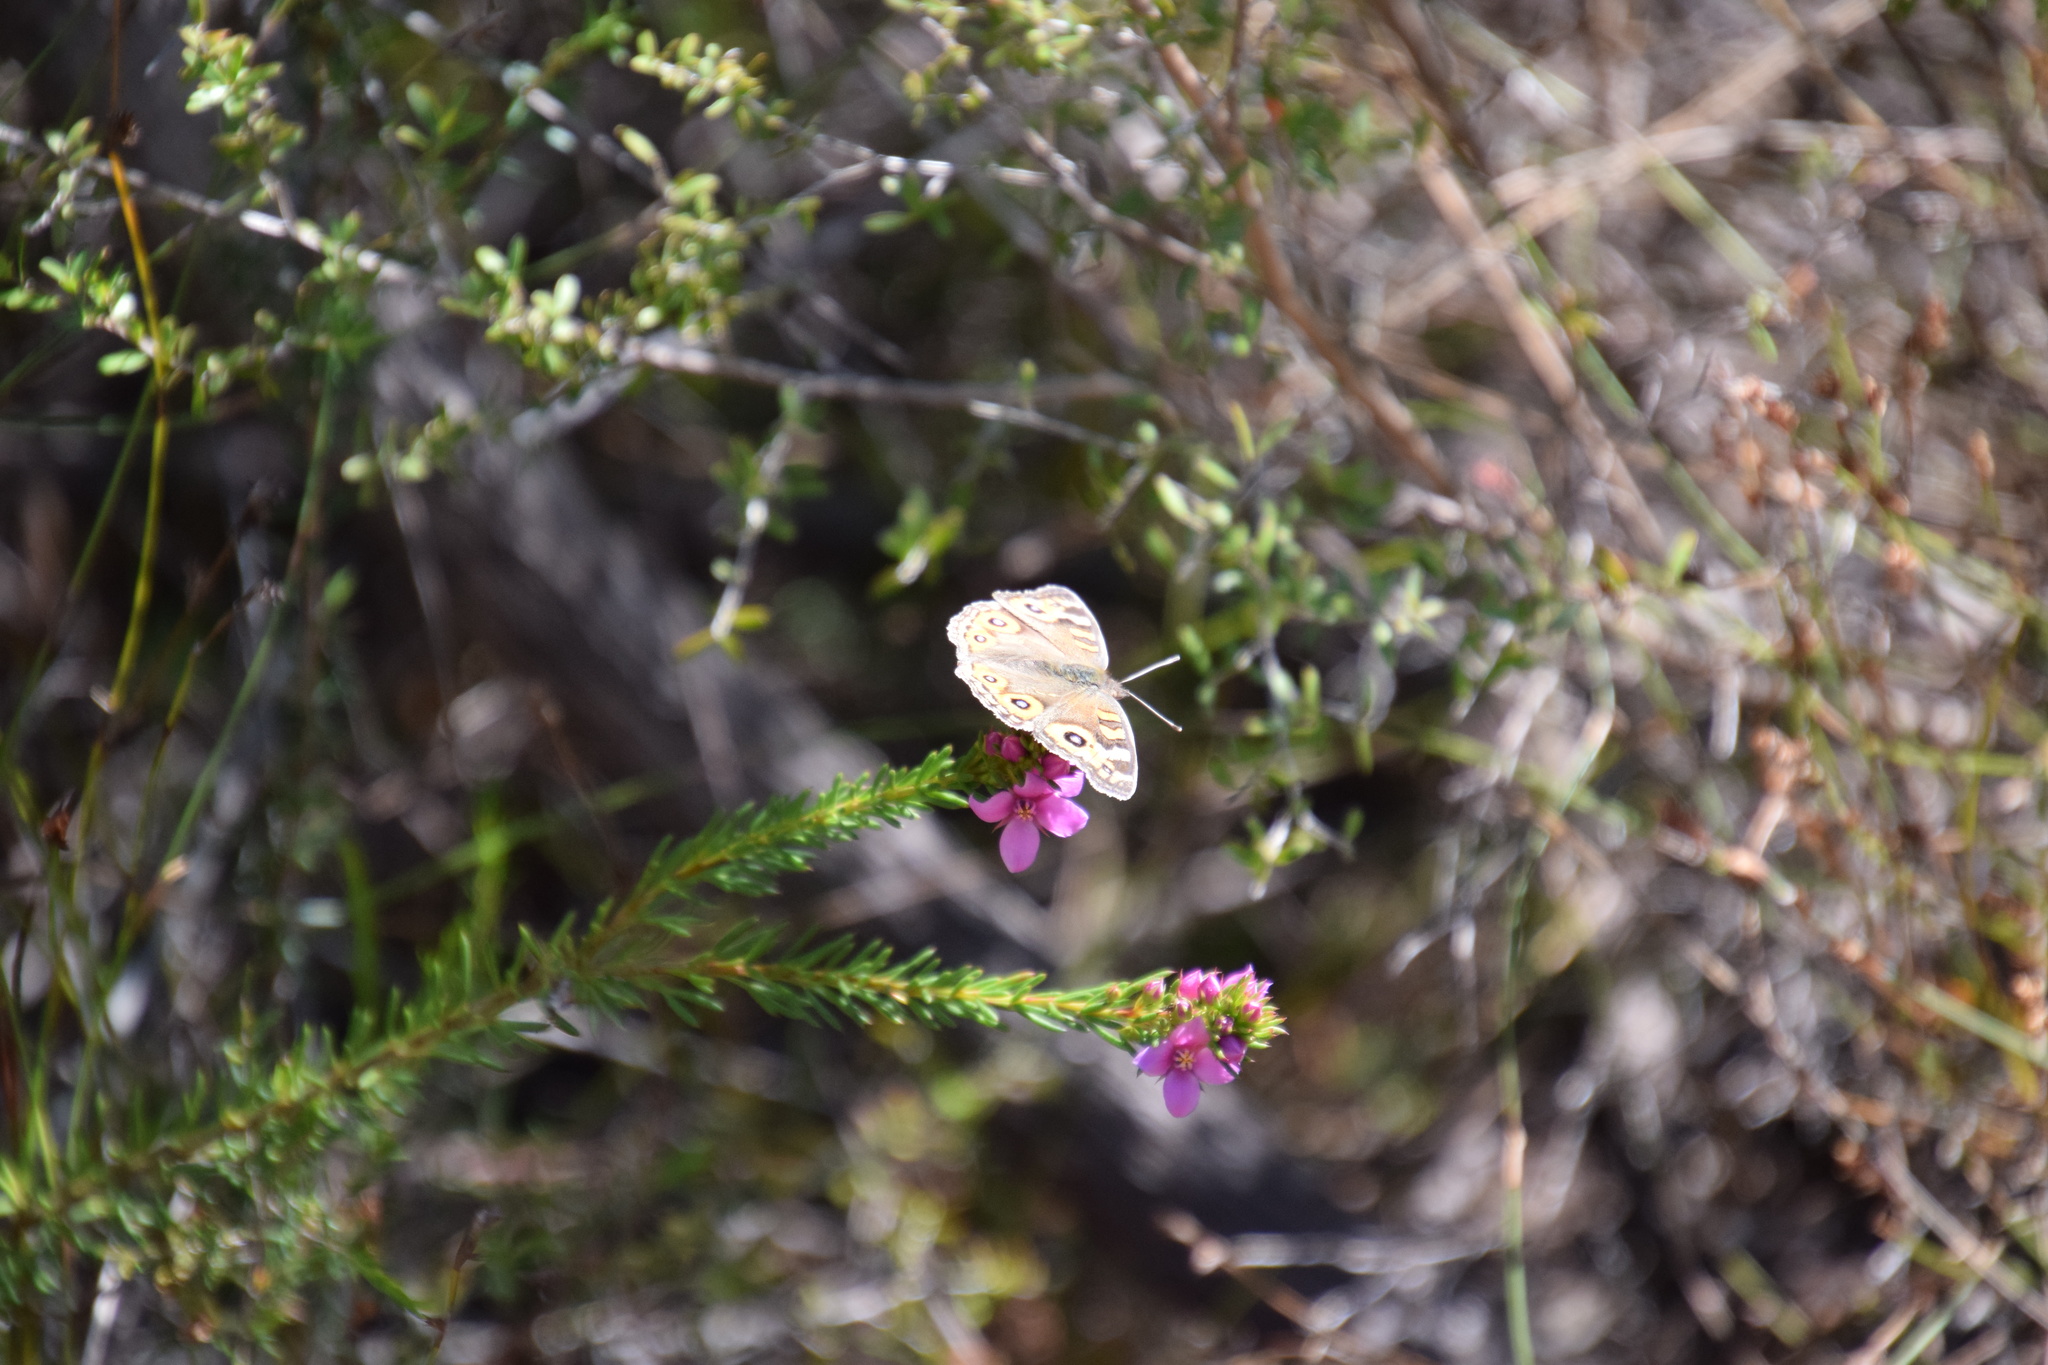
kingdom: Animalia
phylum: Arthropoda
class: Insecta
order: Lepidoptera
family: Nymphalidae
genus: Junonia
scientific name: Junonia villida
